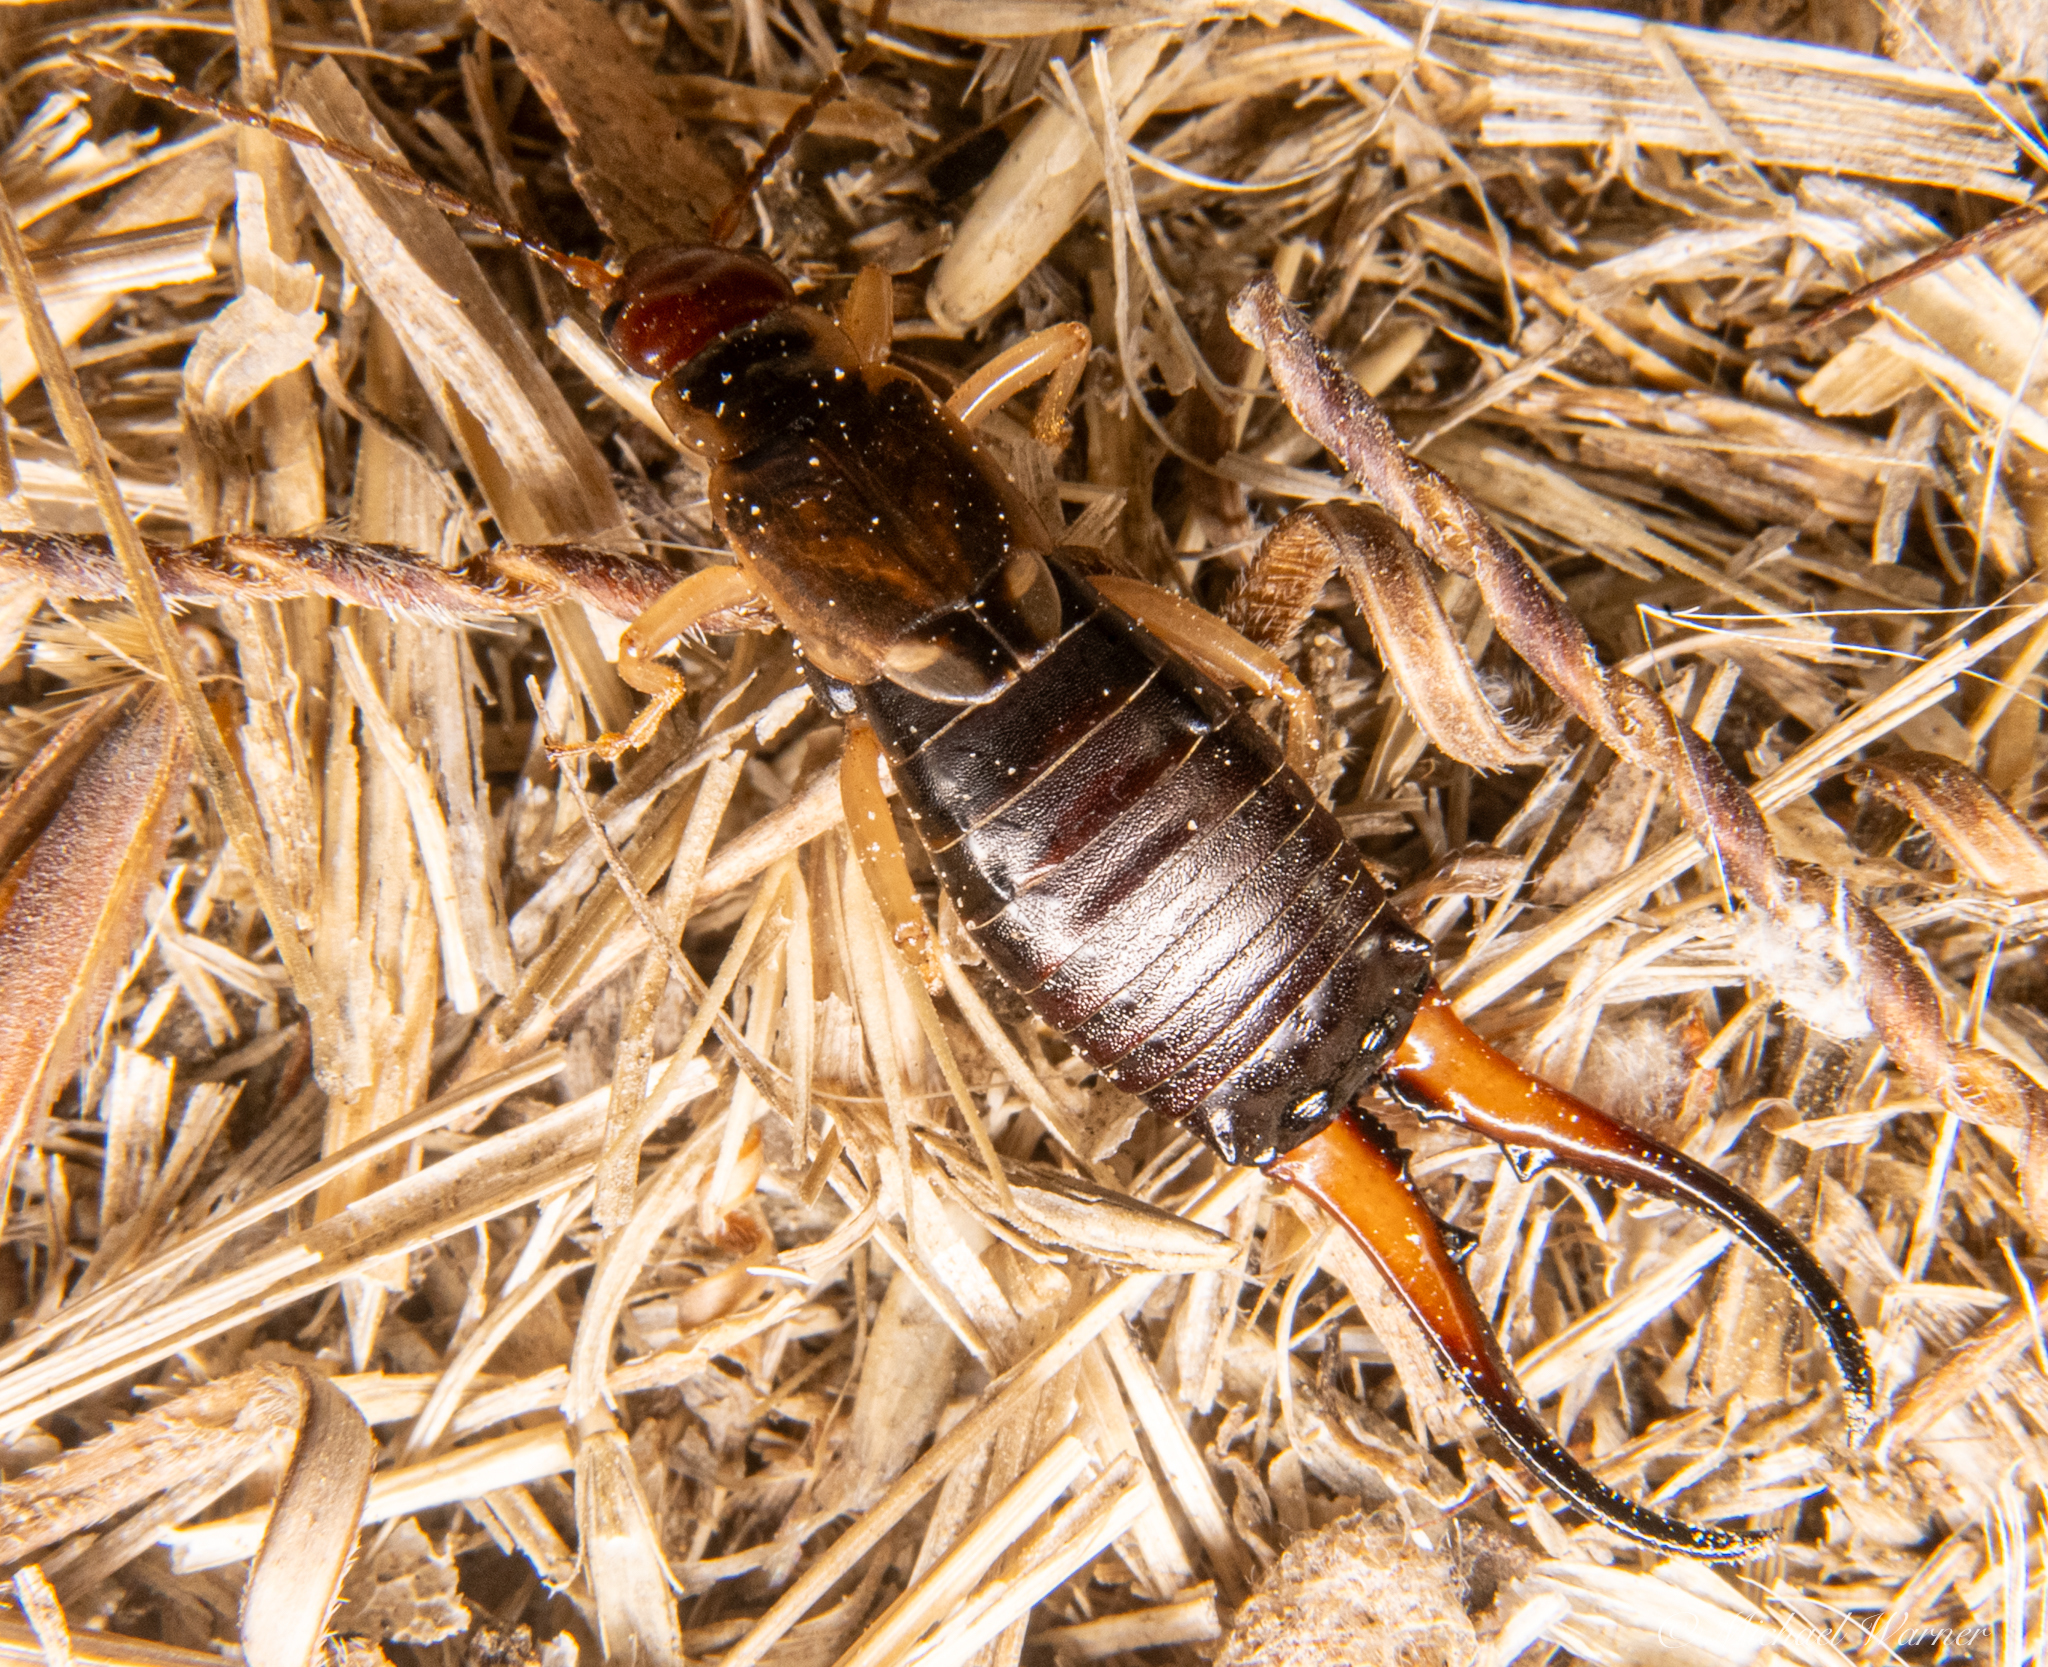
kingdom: Animalia
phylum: Arthropoda
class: Insecta
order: Dermaptera
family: Forficulidae
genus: Forficula
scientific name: Forficula dentata
